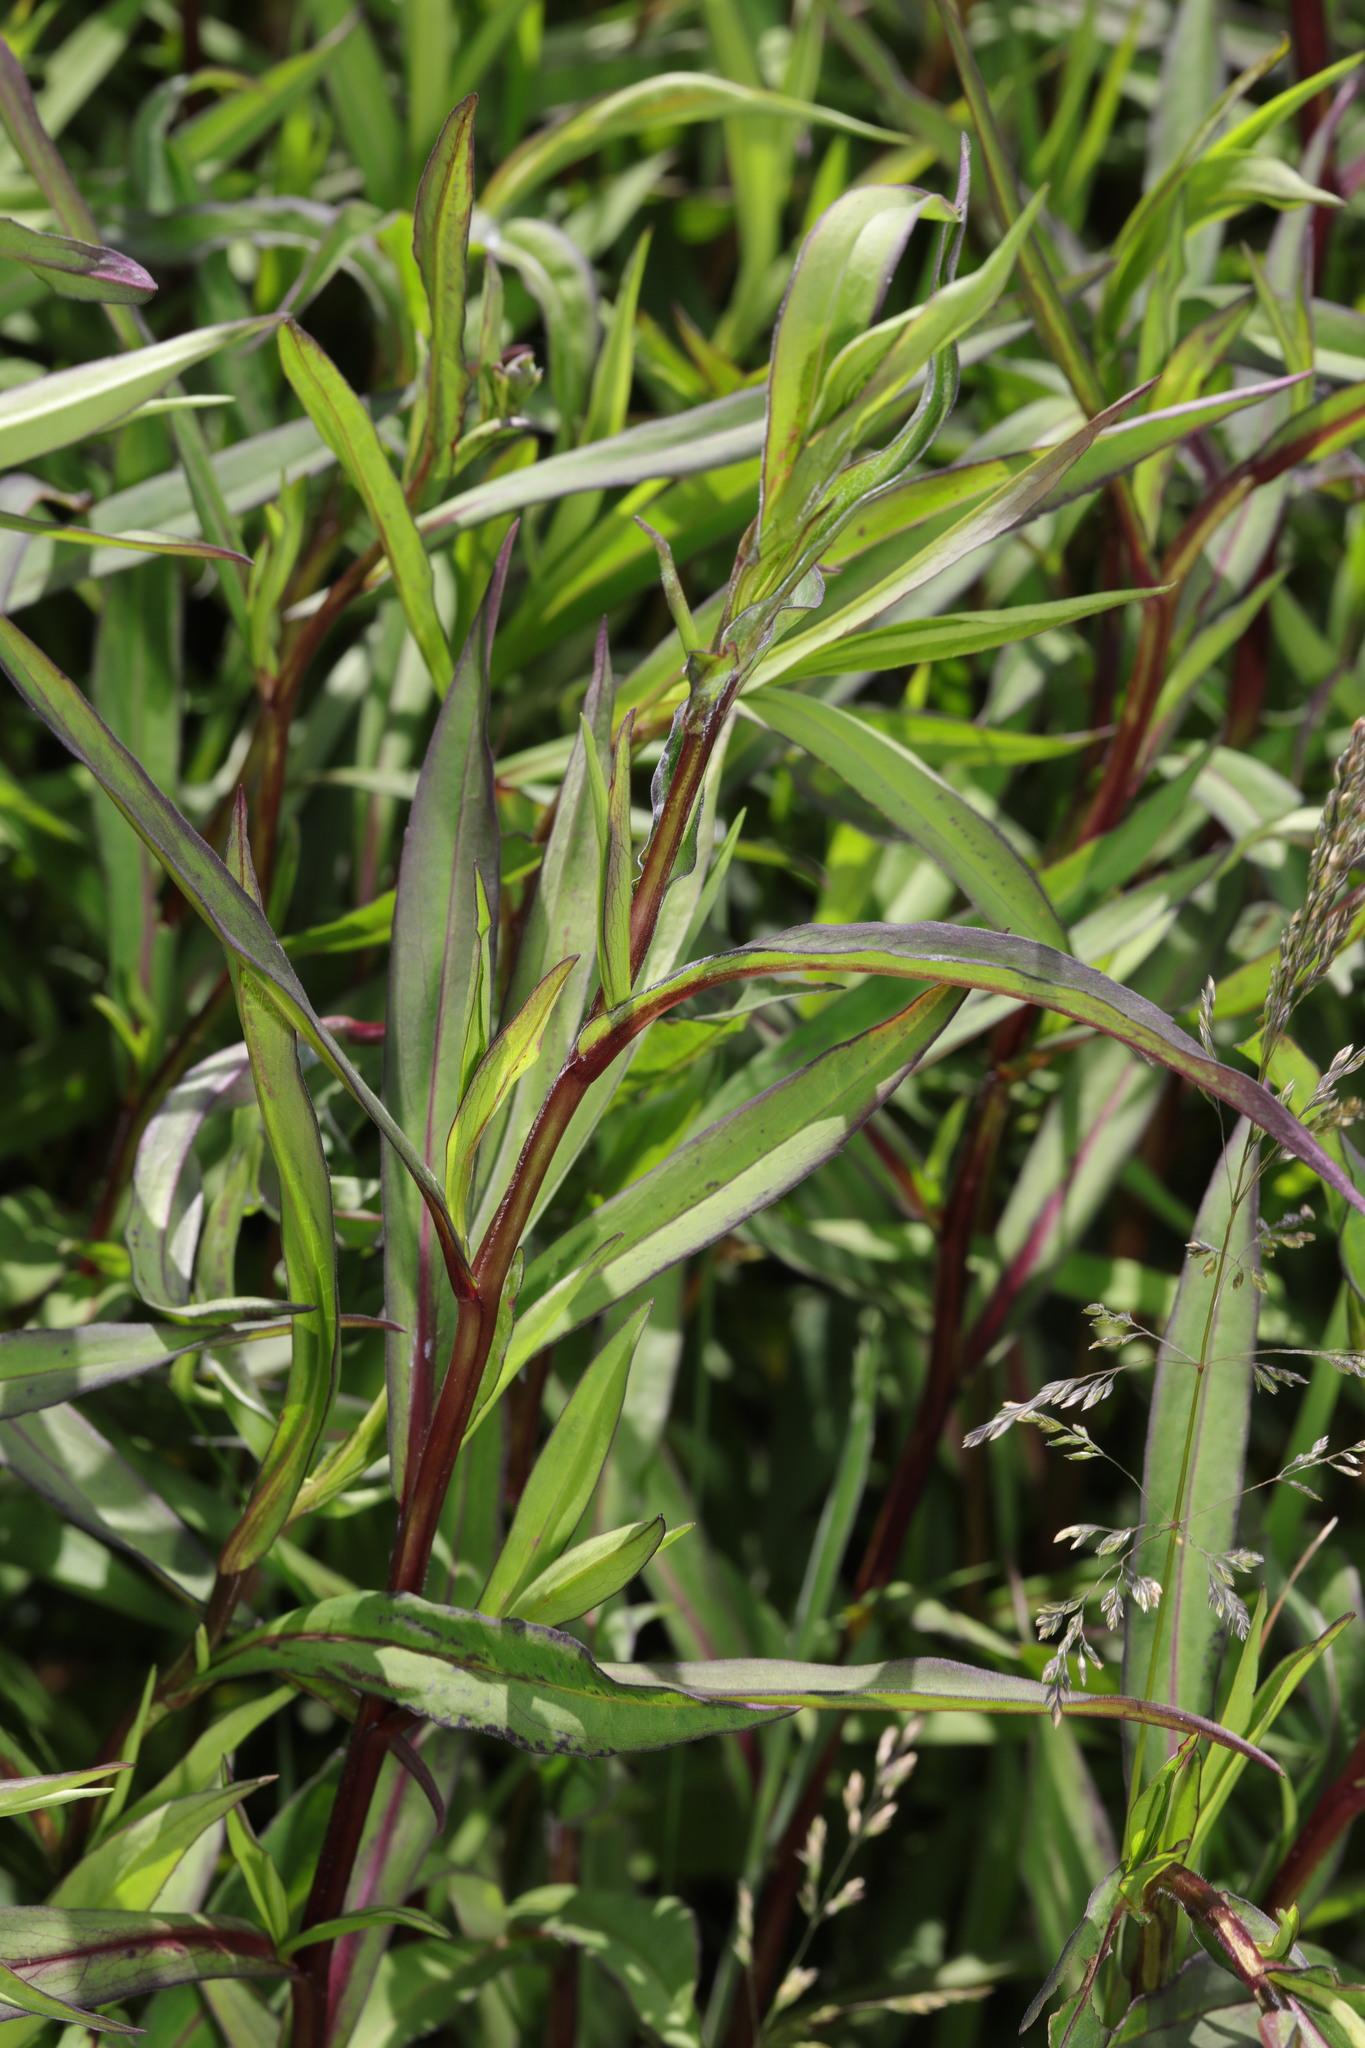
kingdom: Plantae
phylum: Tracheophyta
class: Magnoliopsida
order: Asterales
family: Asteraceae
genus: Symphyotrichum
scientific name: Symphyotrichum
